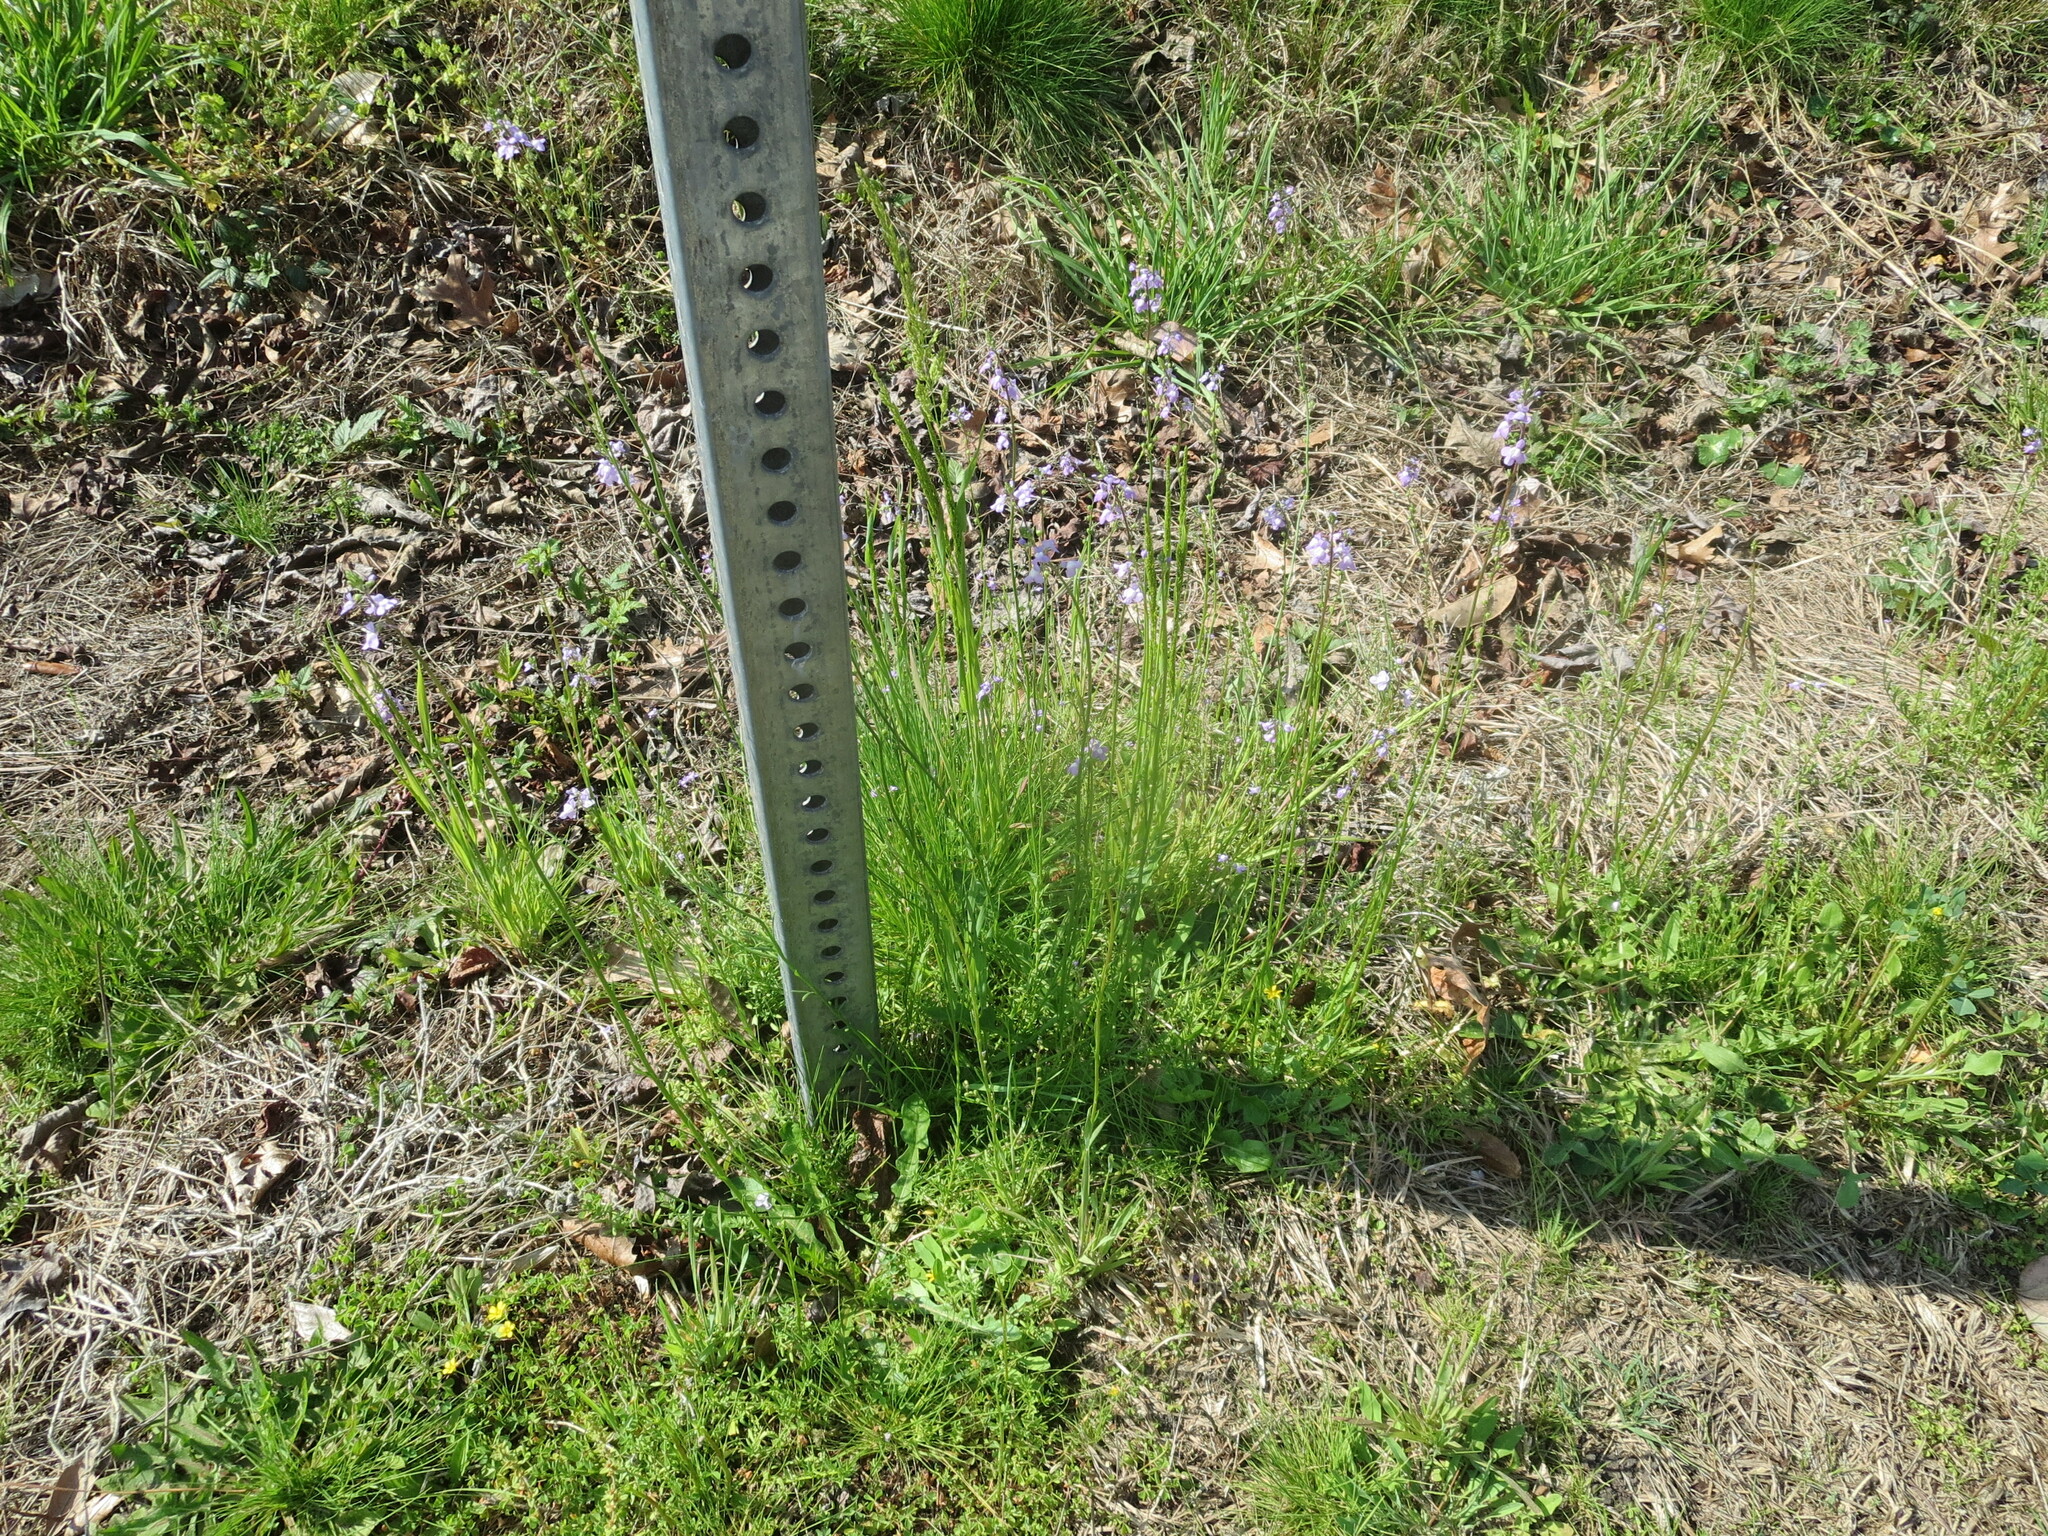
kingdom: Plantae
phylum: Tracheophyta
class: Magnoliopsida
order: Lamiales
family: Plantaginaceae
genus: Nuttallanthus
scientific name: Nuttallanthus canadensis
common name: Blue toadflax
